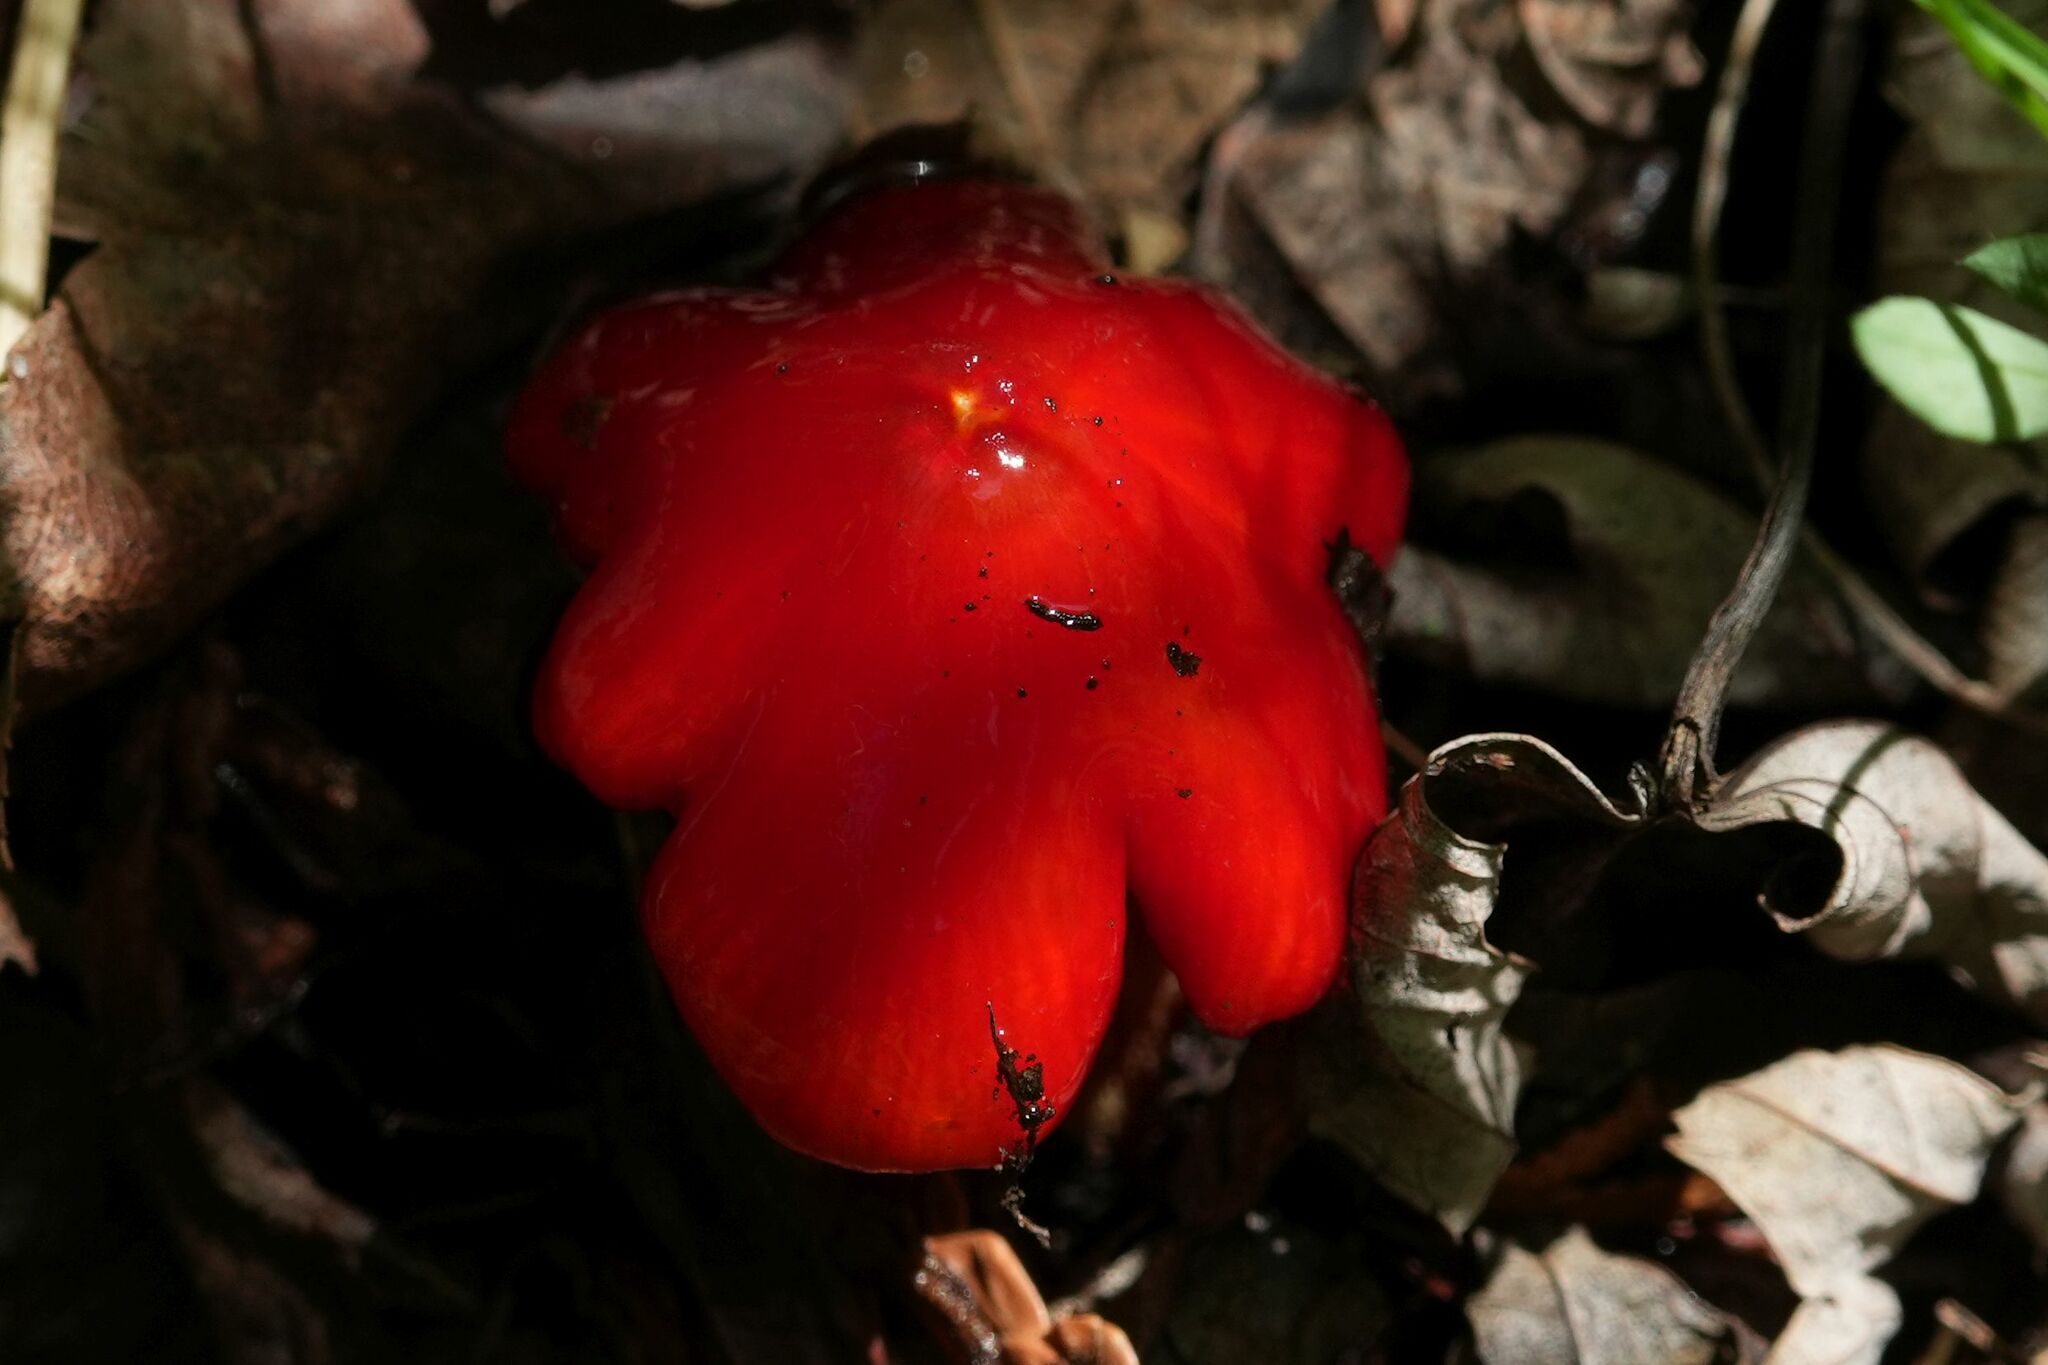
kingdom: Fungi
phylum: Basidiomycota
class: Agaricomycetes
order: Agaricales
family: Hygrophoraceae
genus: Hygrocybe
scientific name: Hygrocybe cuspidata
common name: Candy apple waxy cap
